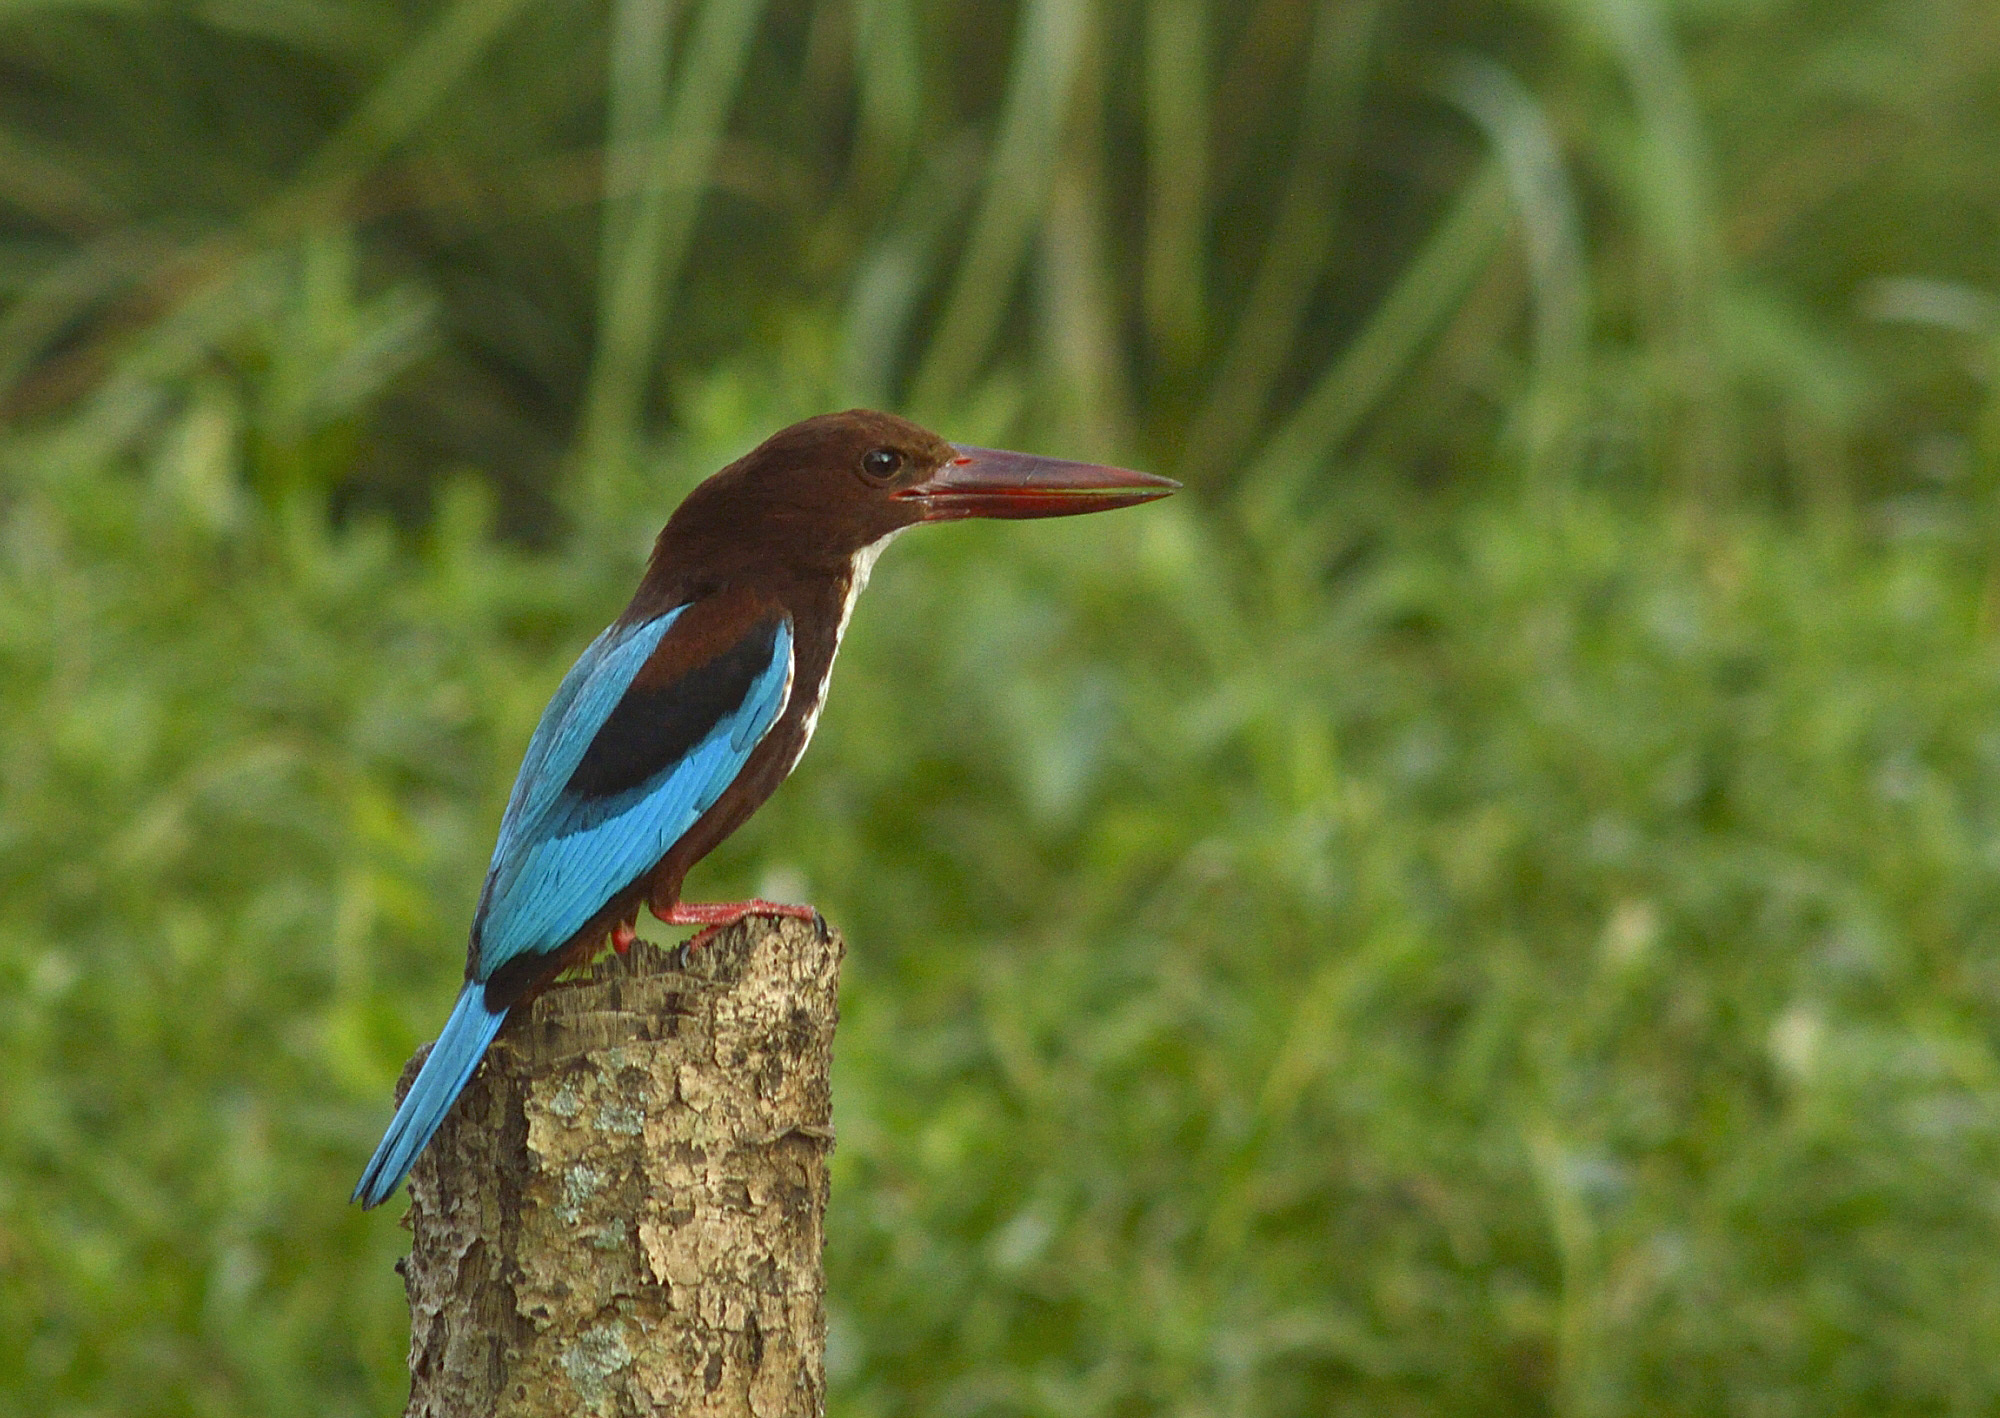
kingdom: Animalia
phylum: Chordata
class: Aves
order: Coraciiformes
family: Alcedinidae
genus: Halcyon
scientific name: Halcyon smyrnensis
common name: White-throated kingfisher
